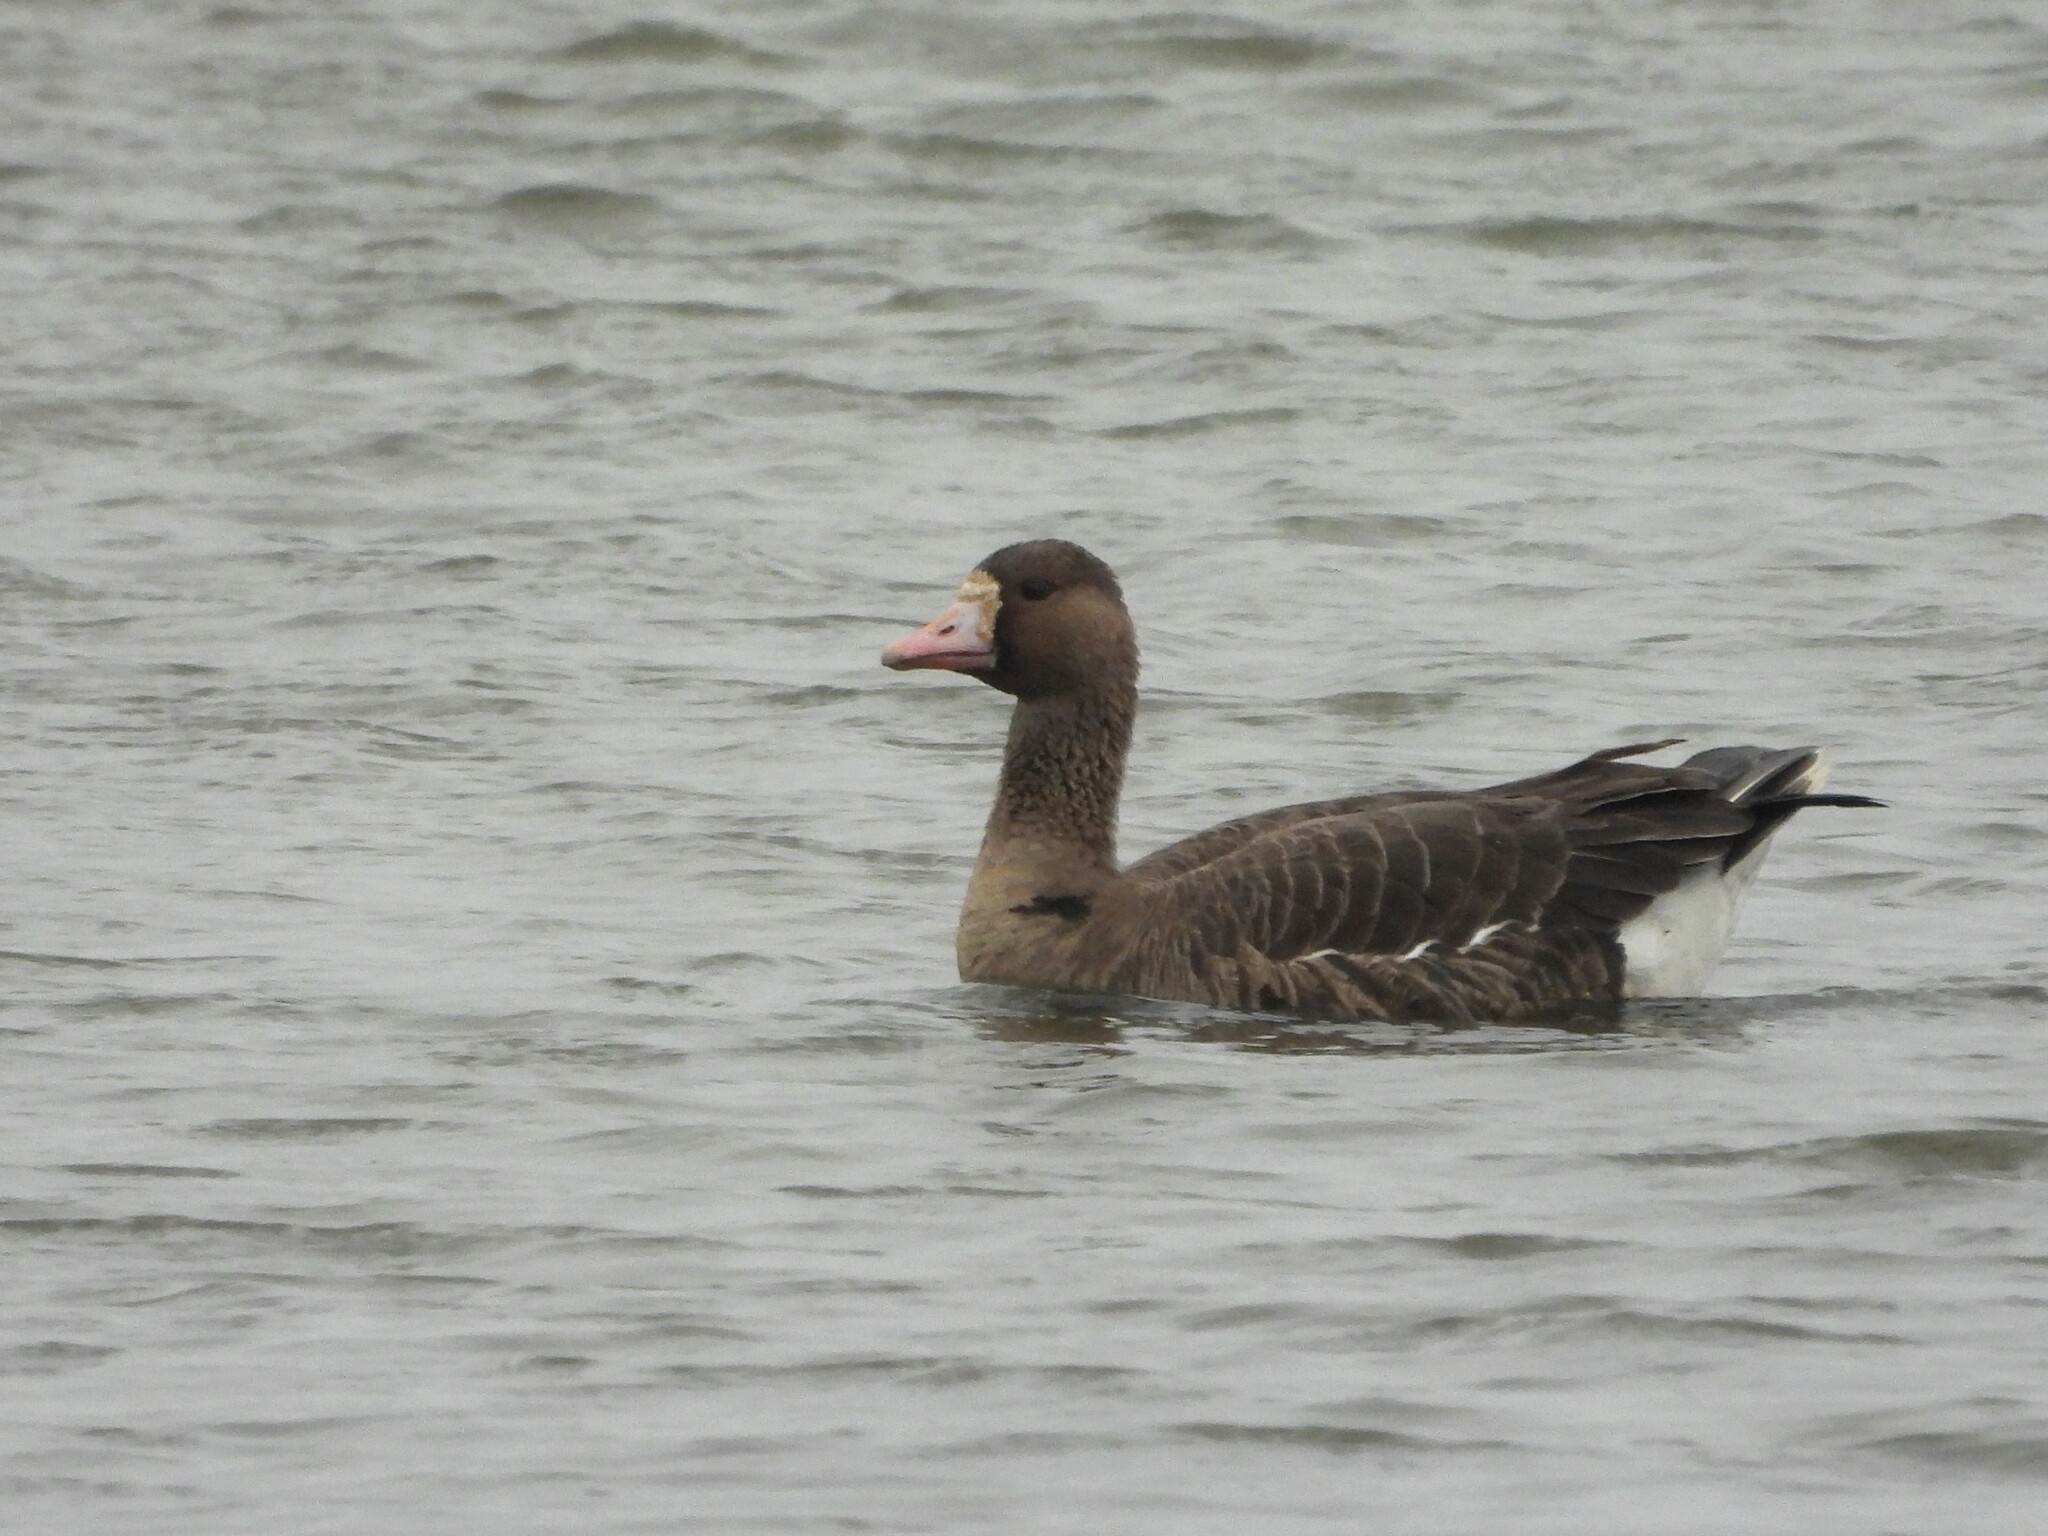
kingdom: Animalia
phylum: Chordata
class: Aves
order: Anseriformes
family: Anatidae
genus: Anser
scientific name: Anser albifrons
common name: Greater white-fronted goose
